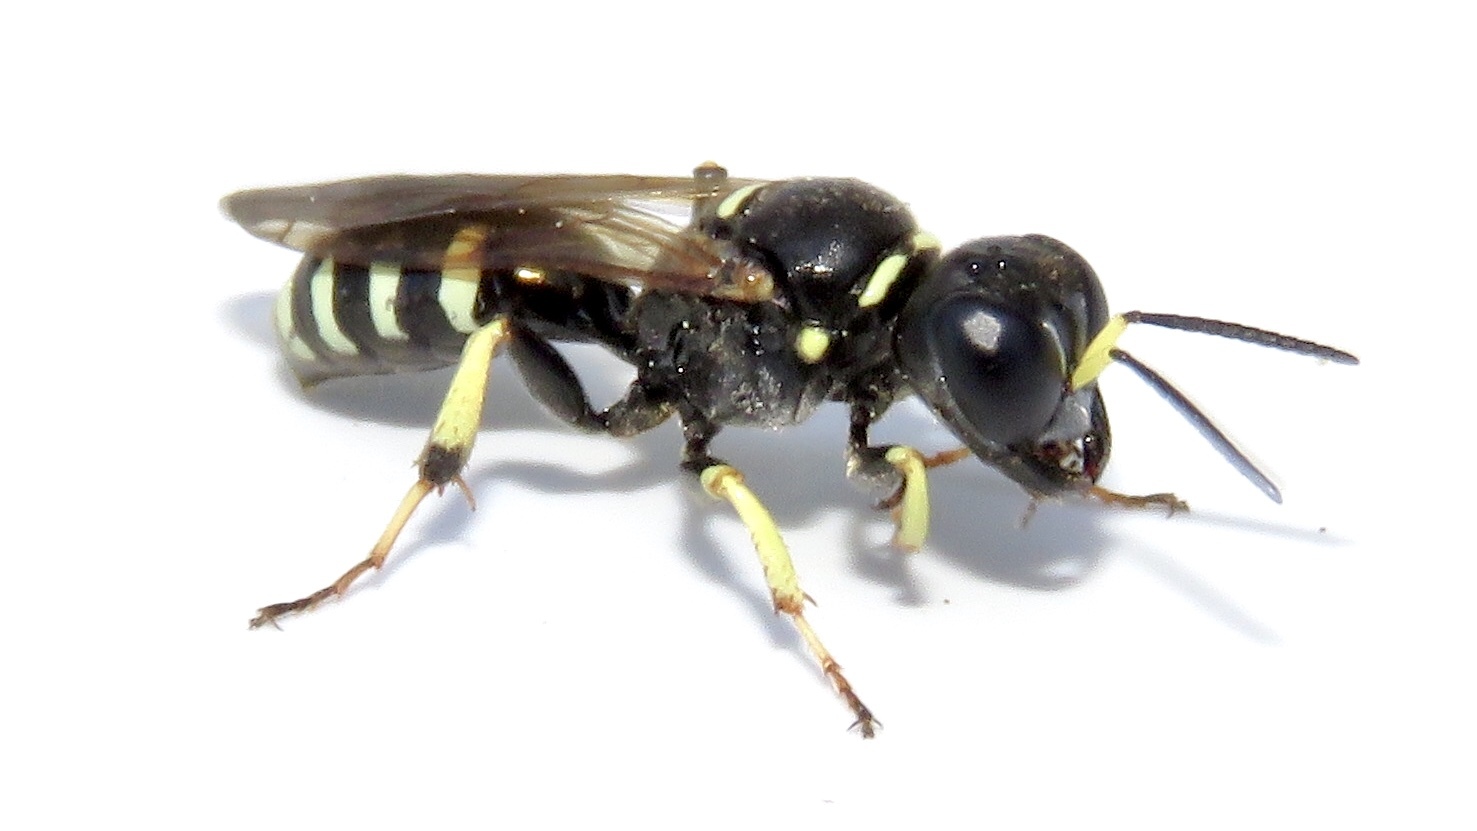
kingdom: Animalia
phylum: Arthropoda
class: Insecta
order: Hymenoptera
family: Crabronidae
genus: Crossocerus
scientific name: Crossocerus maculipennis
